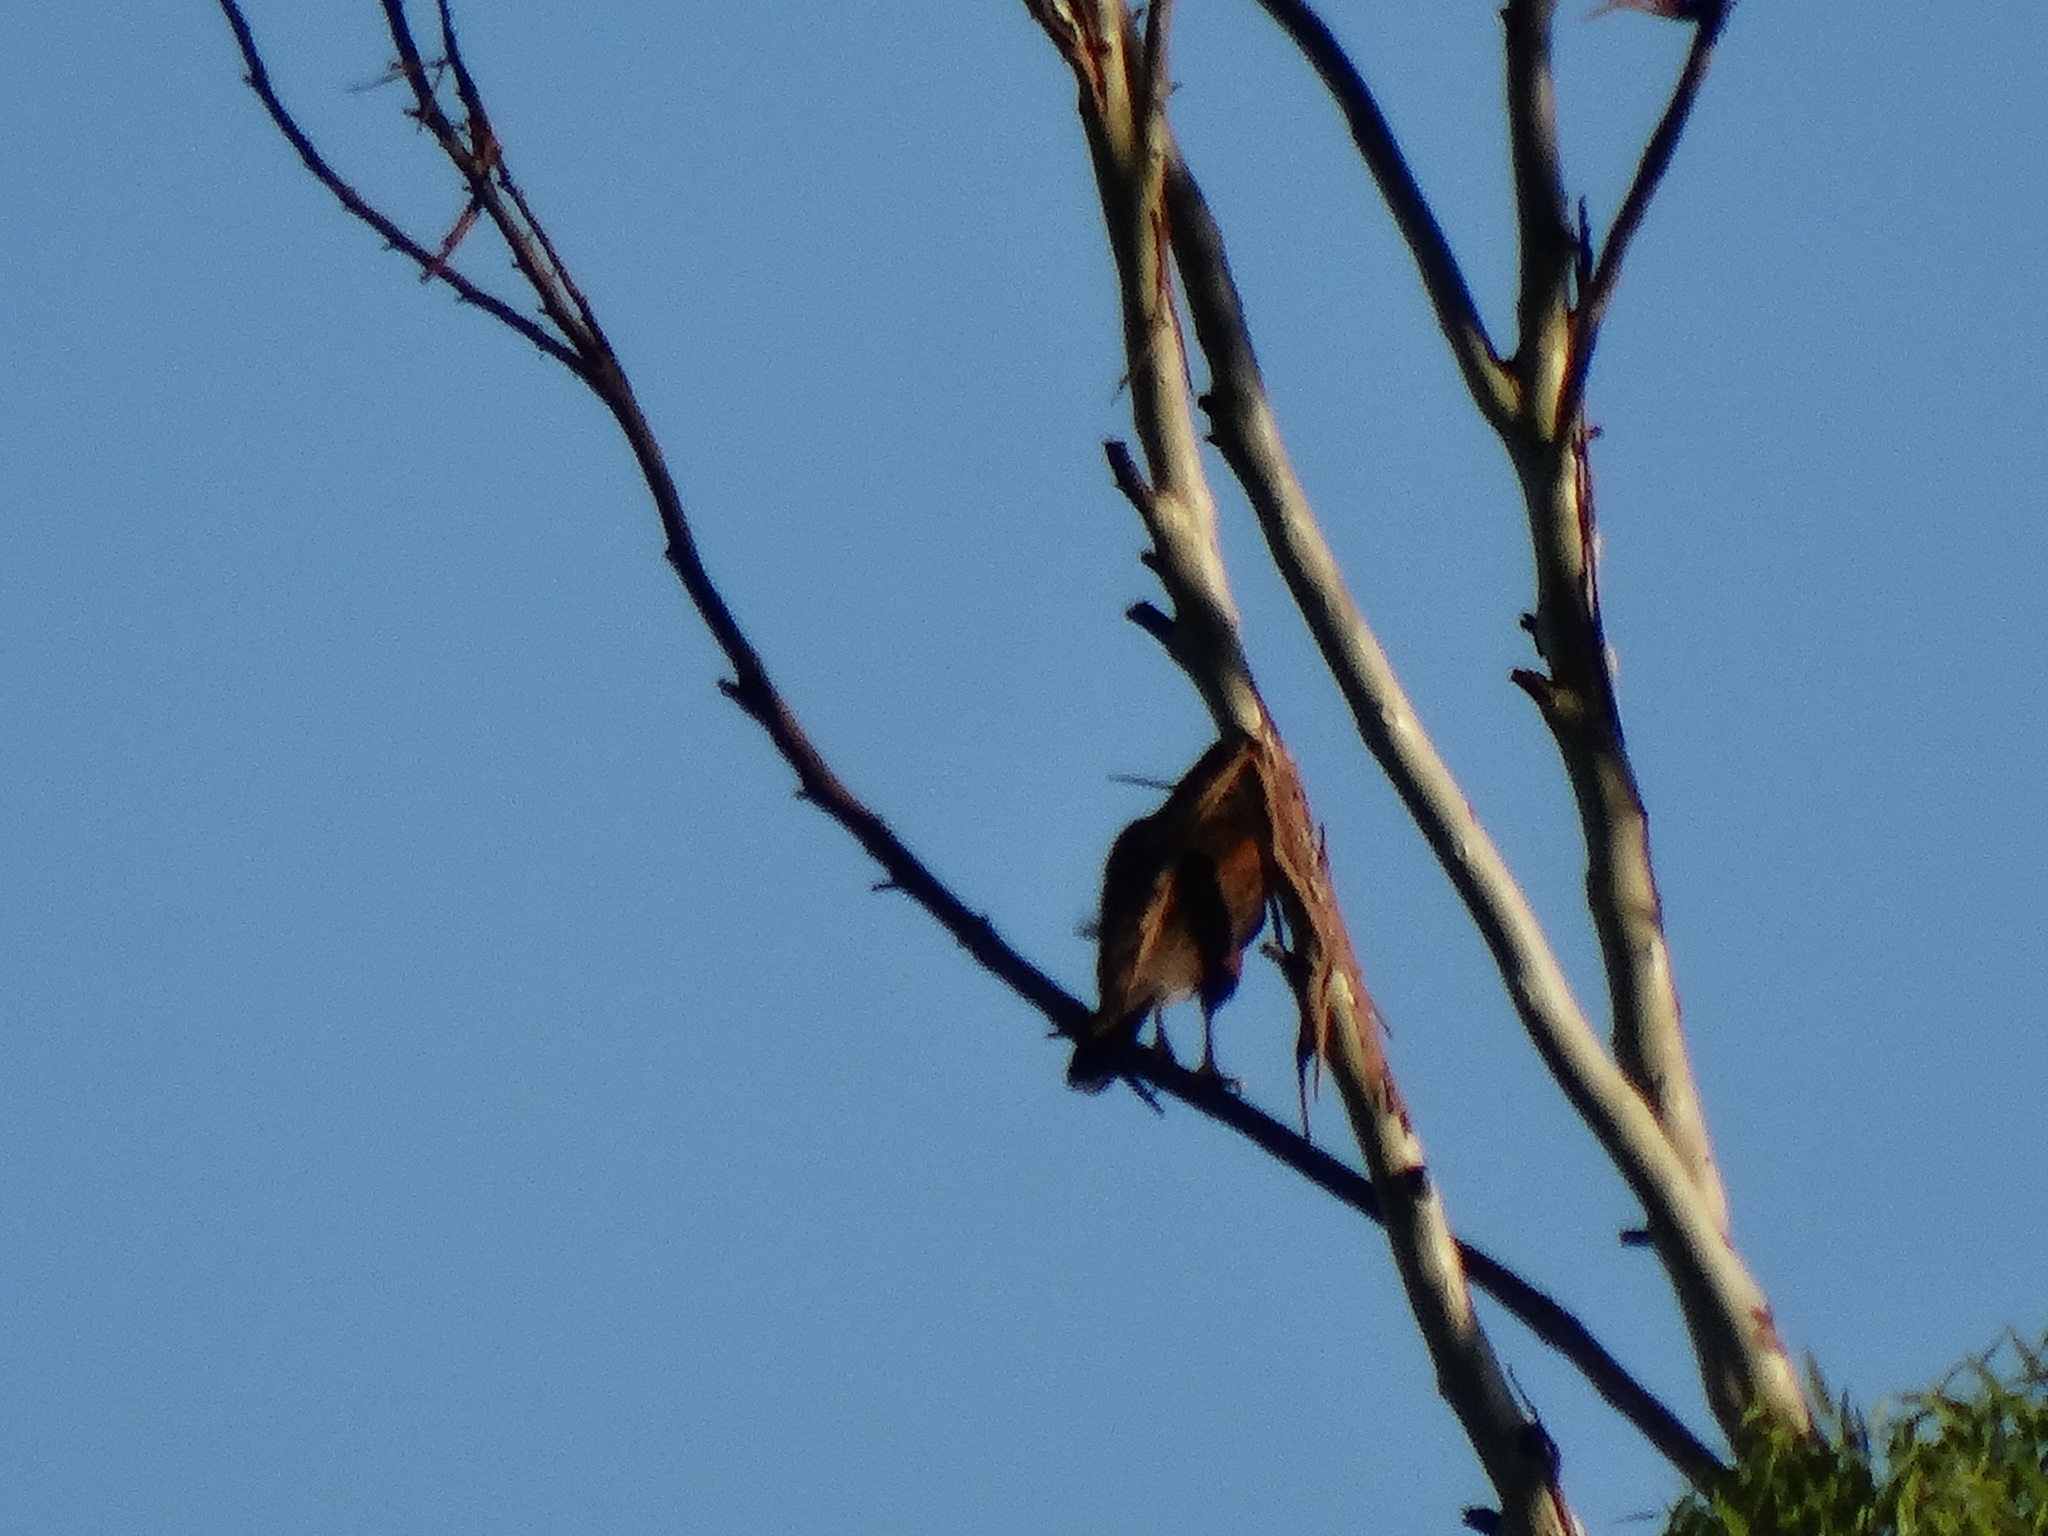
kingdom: Animalia
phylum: Chordata
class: Aves
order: Accipitriformes
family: Accipitridae
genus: Parabuteo
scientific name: Parabuteo unicinctus
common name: Harris's hawk
